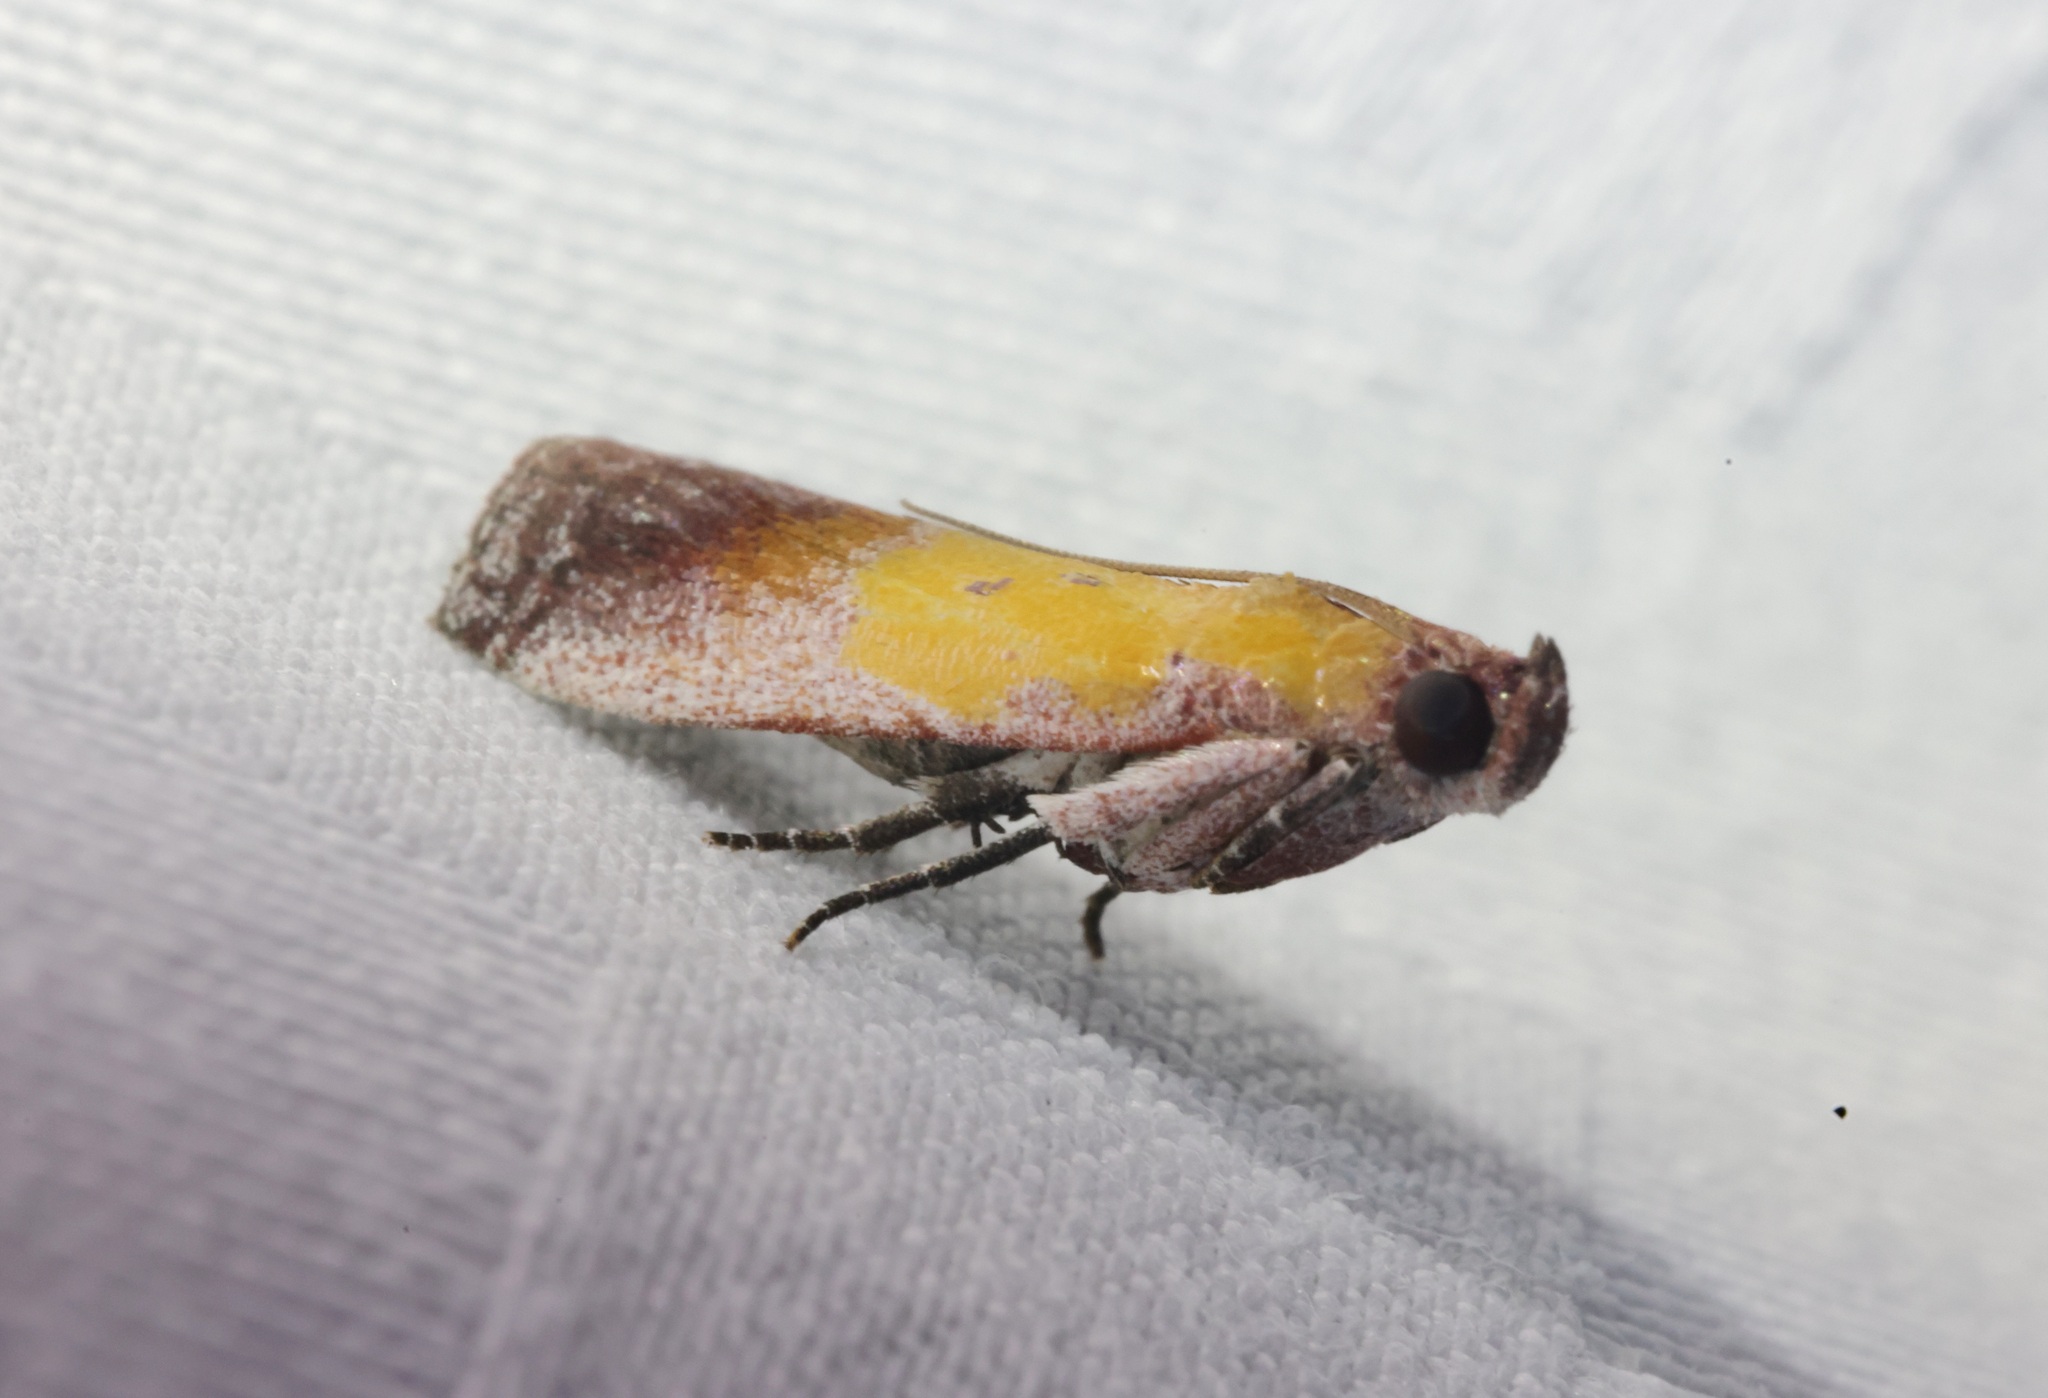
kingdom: Animalia
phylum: Arthropoda
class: Insecta
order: Lepidoptera
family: Pyralidae
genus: Piesmopoda
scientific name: Piesmopoda
